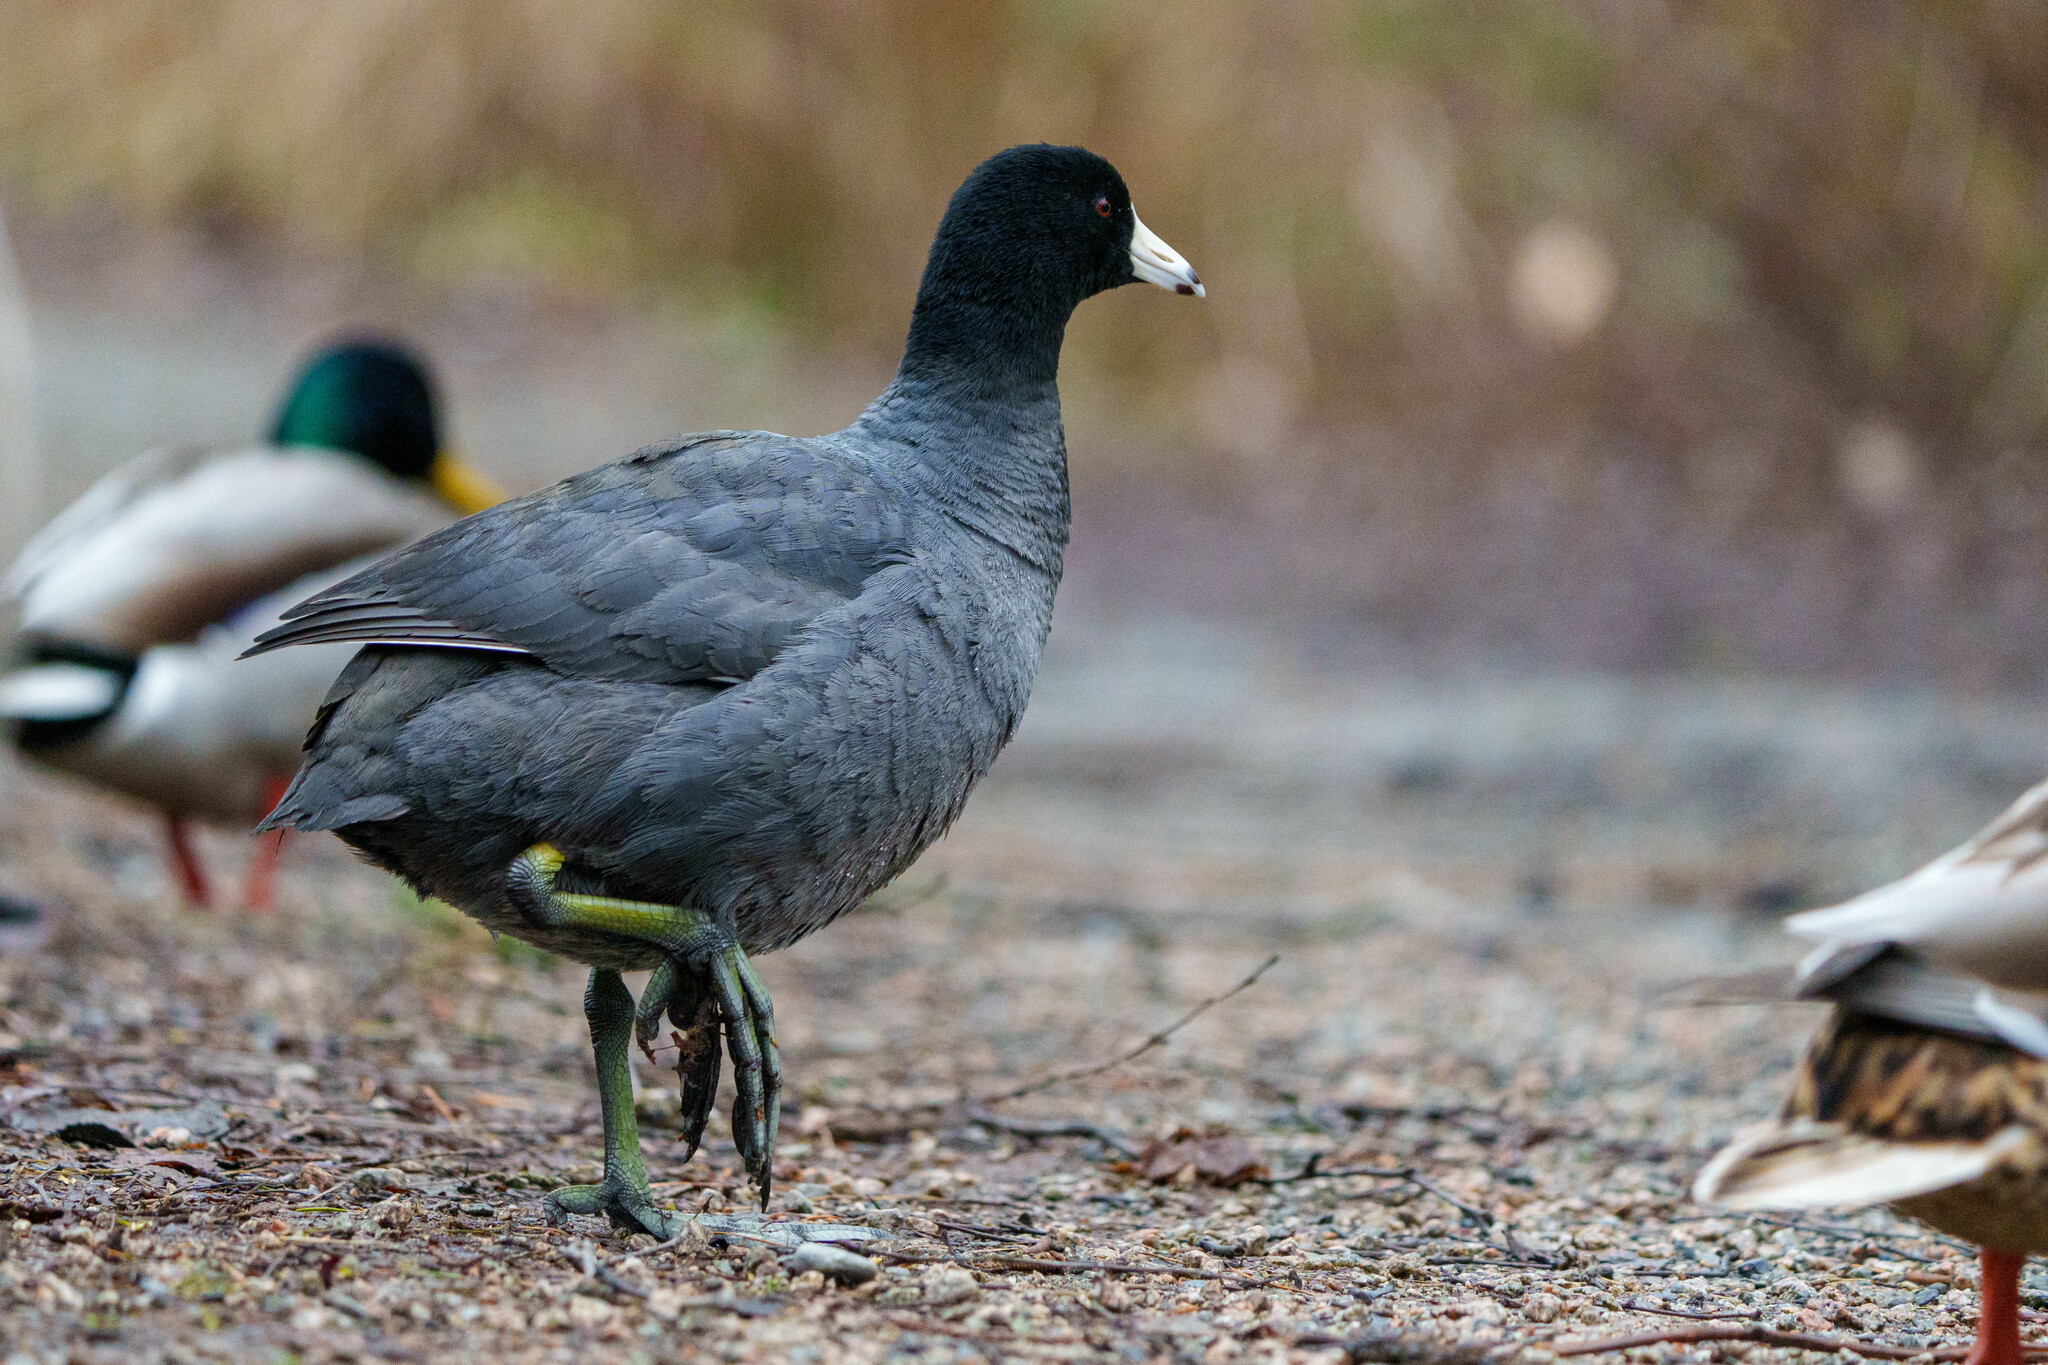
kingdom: Animalia
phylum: Chordata
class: Aves
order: Gruiformes
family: Rallidae
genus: Fulica
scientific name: Fulica americana
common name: American coot
